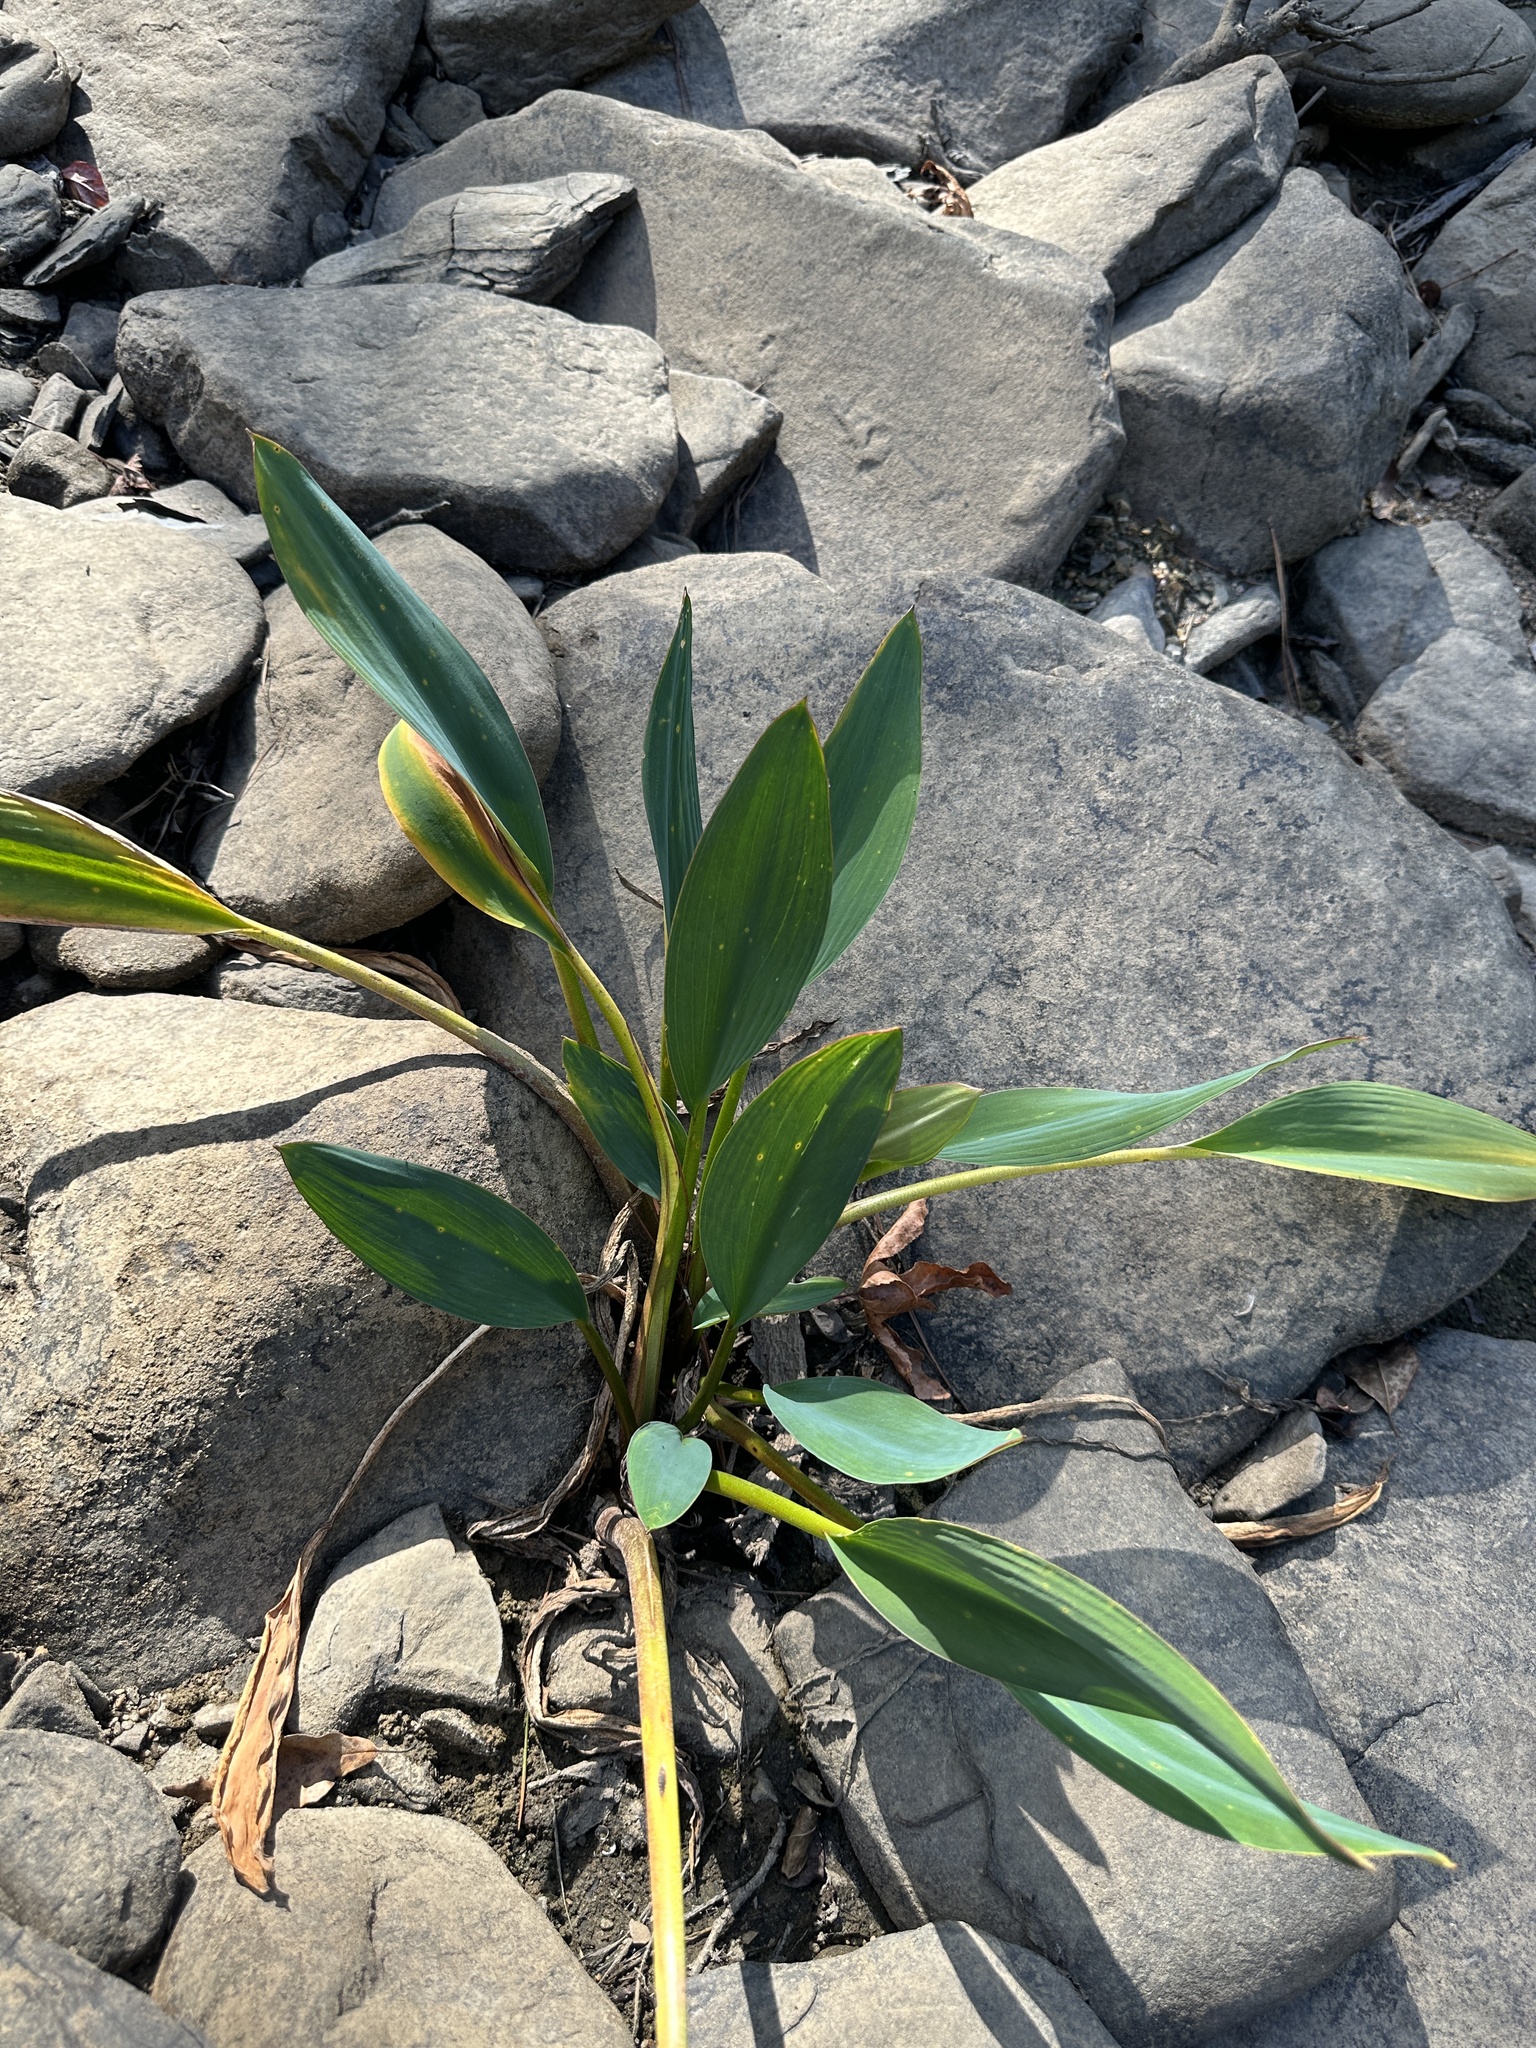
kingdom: Plantae
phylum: Tracheophyta
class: Liliopsida
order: Alismatales
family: Araceae
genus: Orontium
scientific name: Orontium aquaticum
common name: Golden-club
